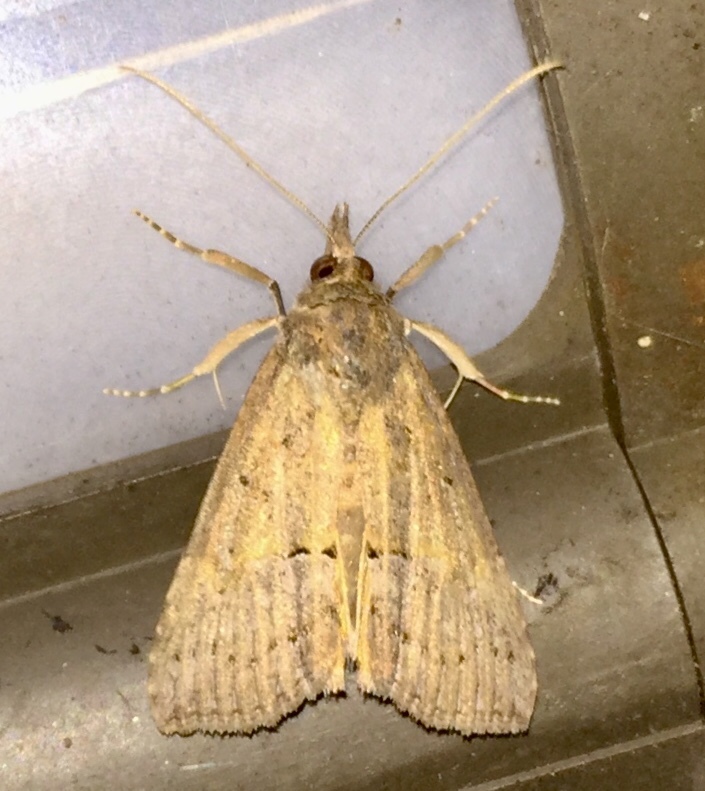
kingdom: Animalia
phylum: Arthropoda
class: Insecta
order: Lepidoptera
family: Erebidae
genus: Hypena
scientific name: Hypena scabra
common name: Green cloverworm
